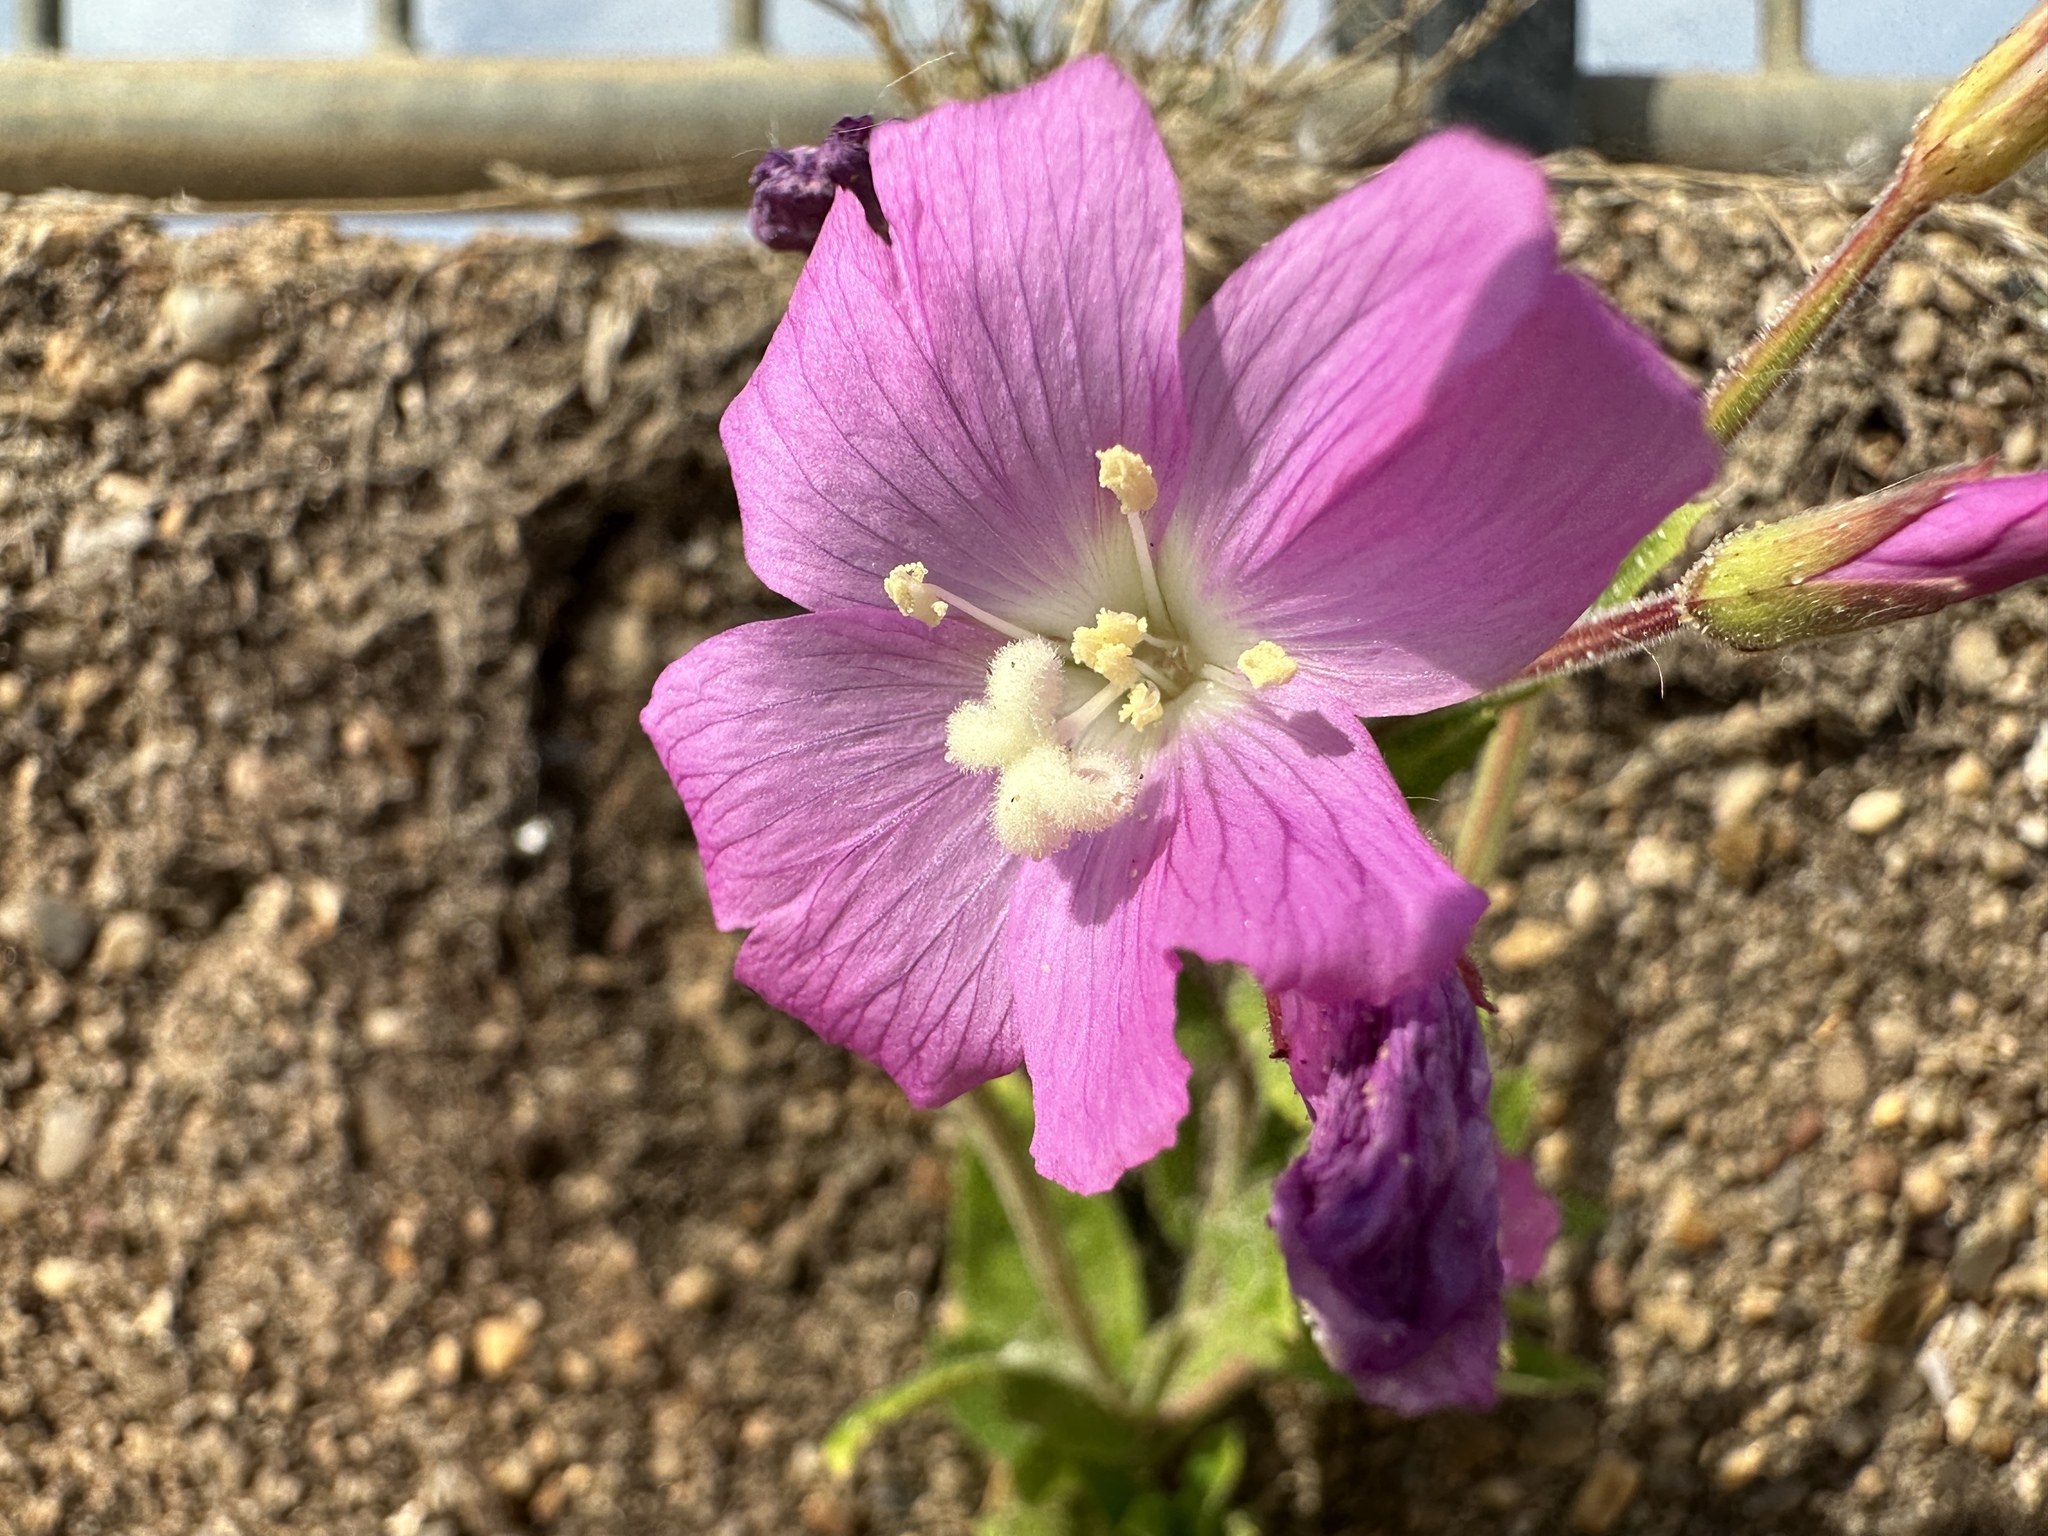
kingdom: Plantae
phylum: Tracheophyta
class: Magnoliopsida
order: Myrtales
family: Onagraceae
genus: Epilobium
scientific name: Epilobium hirsutum
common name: Great willowherb
